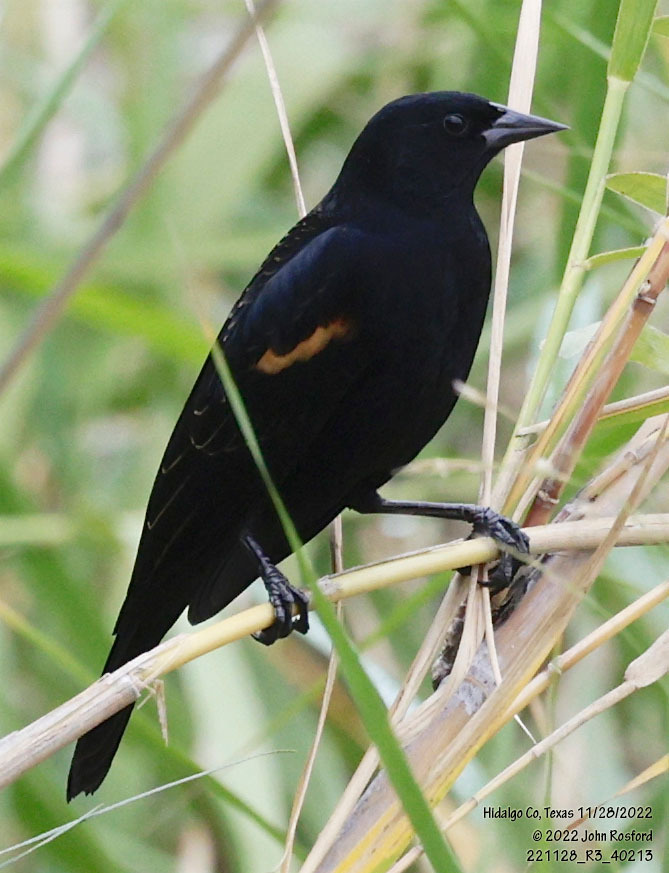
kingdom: Animalia
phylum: Chordata
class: Aves
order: Passeriformes
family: Icteridae
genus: Agelaius
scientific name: Agelaius phoeniceus
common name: Red-winged blackbird
